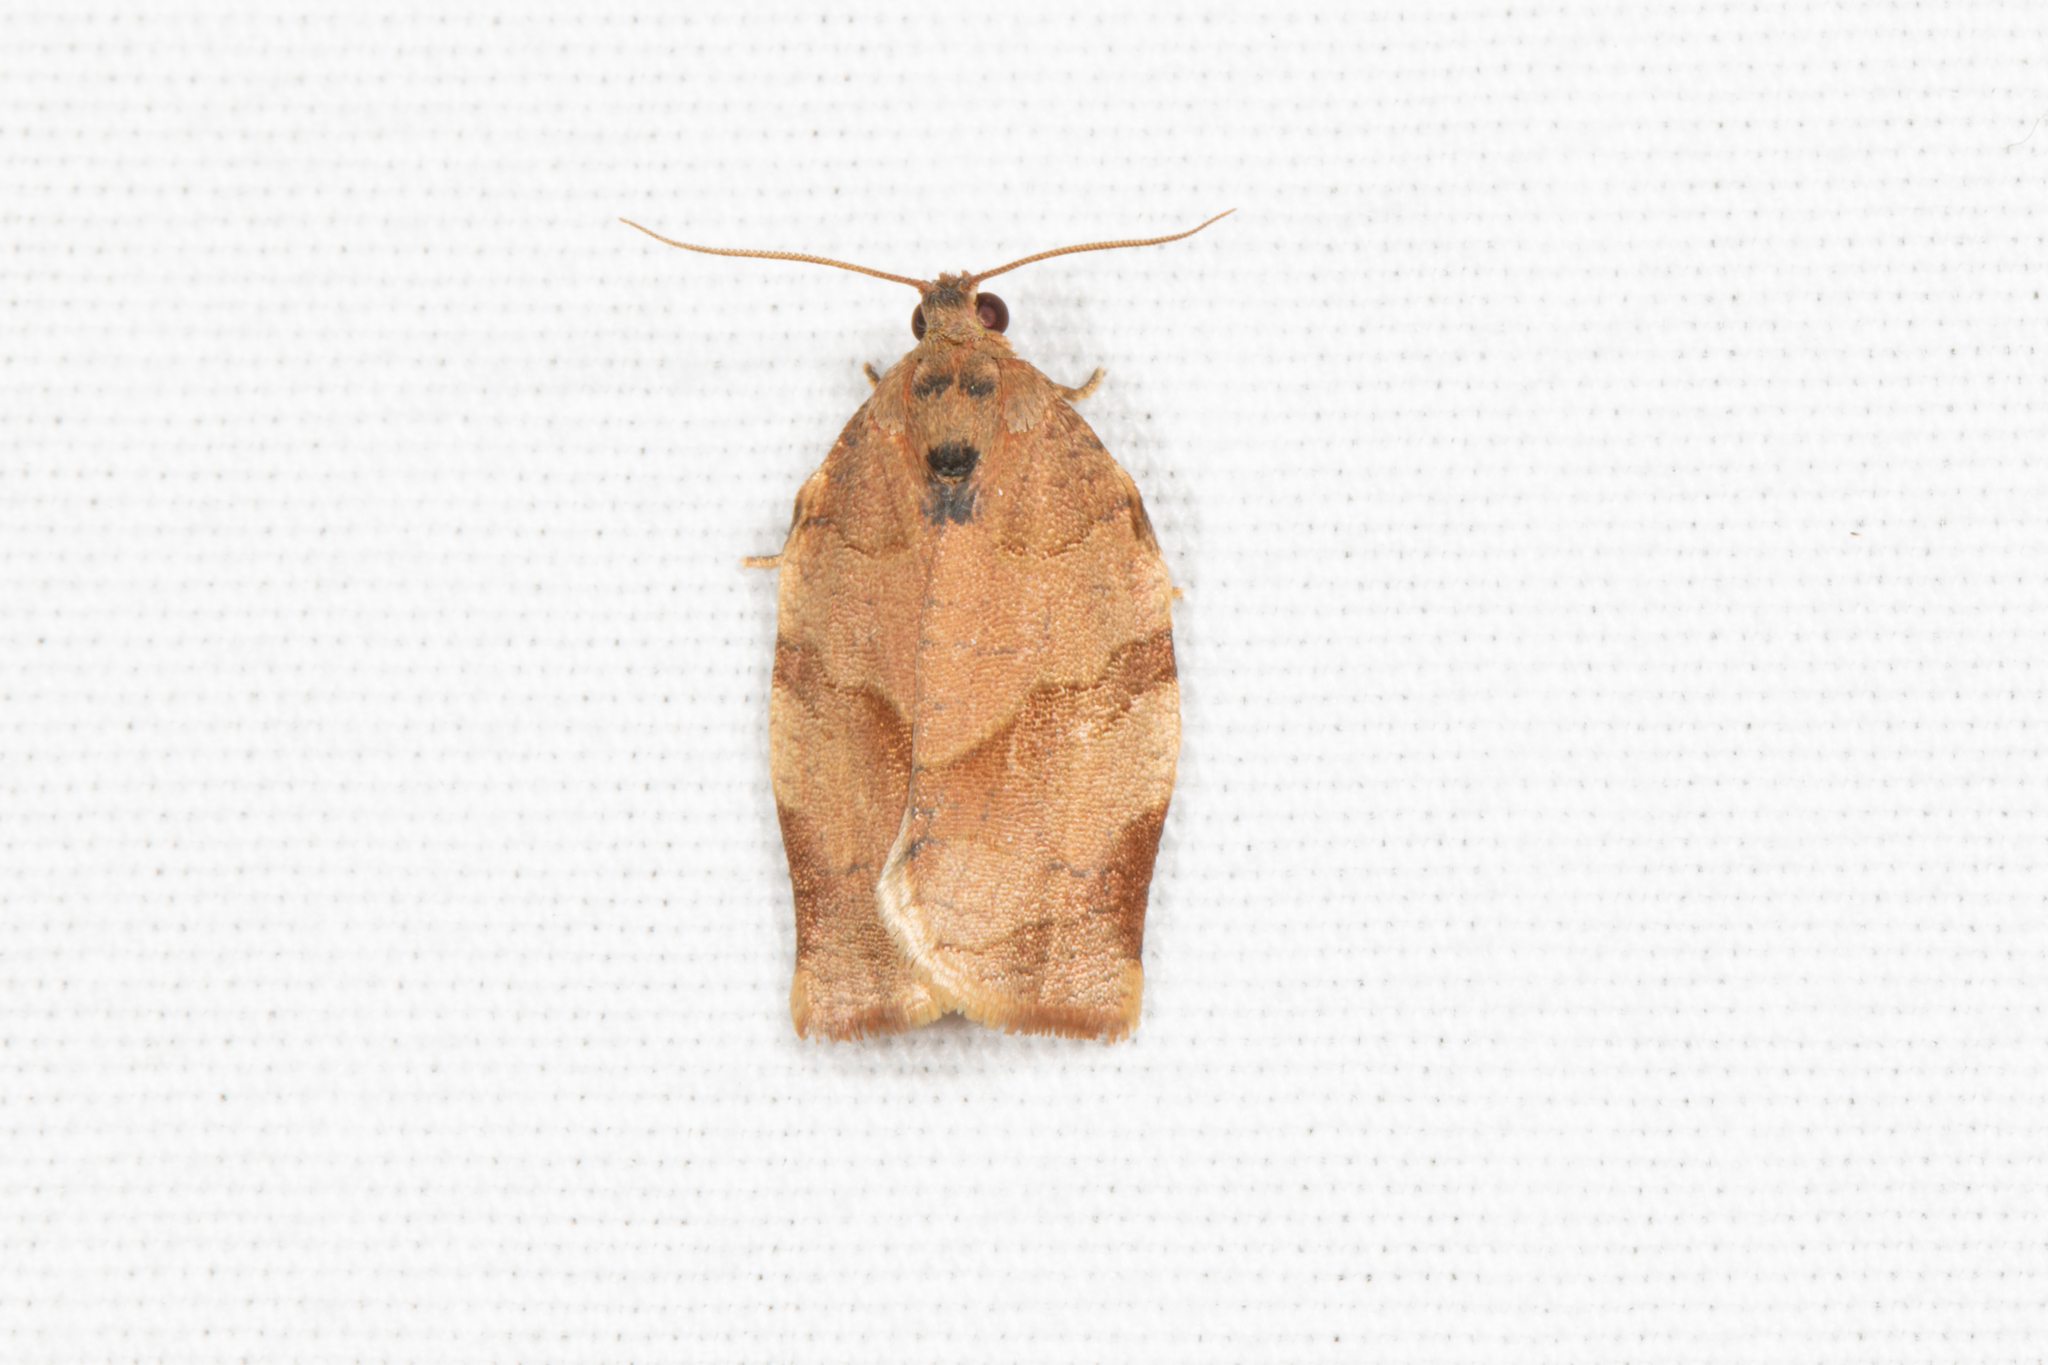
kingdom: Animalia
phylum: Arthropoda
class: Insecta
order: Lepidoptera
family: Tortricidae
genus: Choristoneura
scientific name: Choristoneura rosaceana
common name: Oblique-banded leafroller moth
